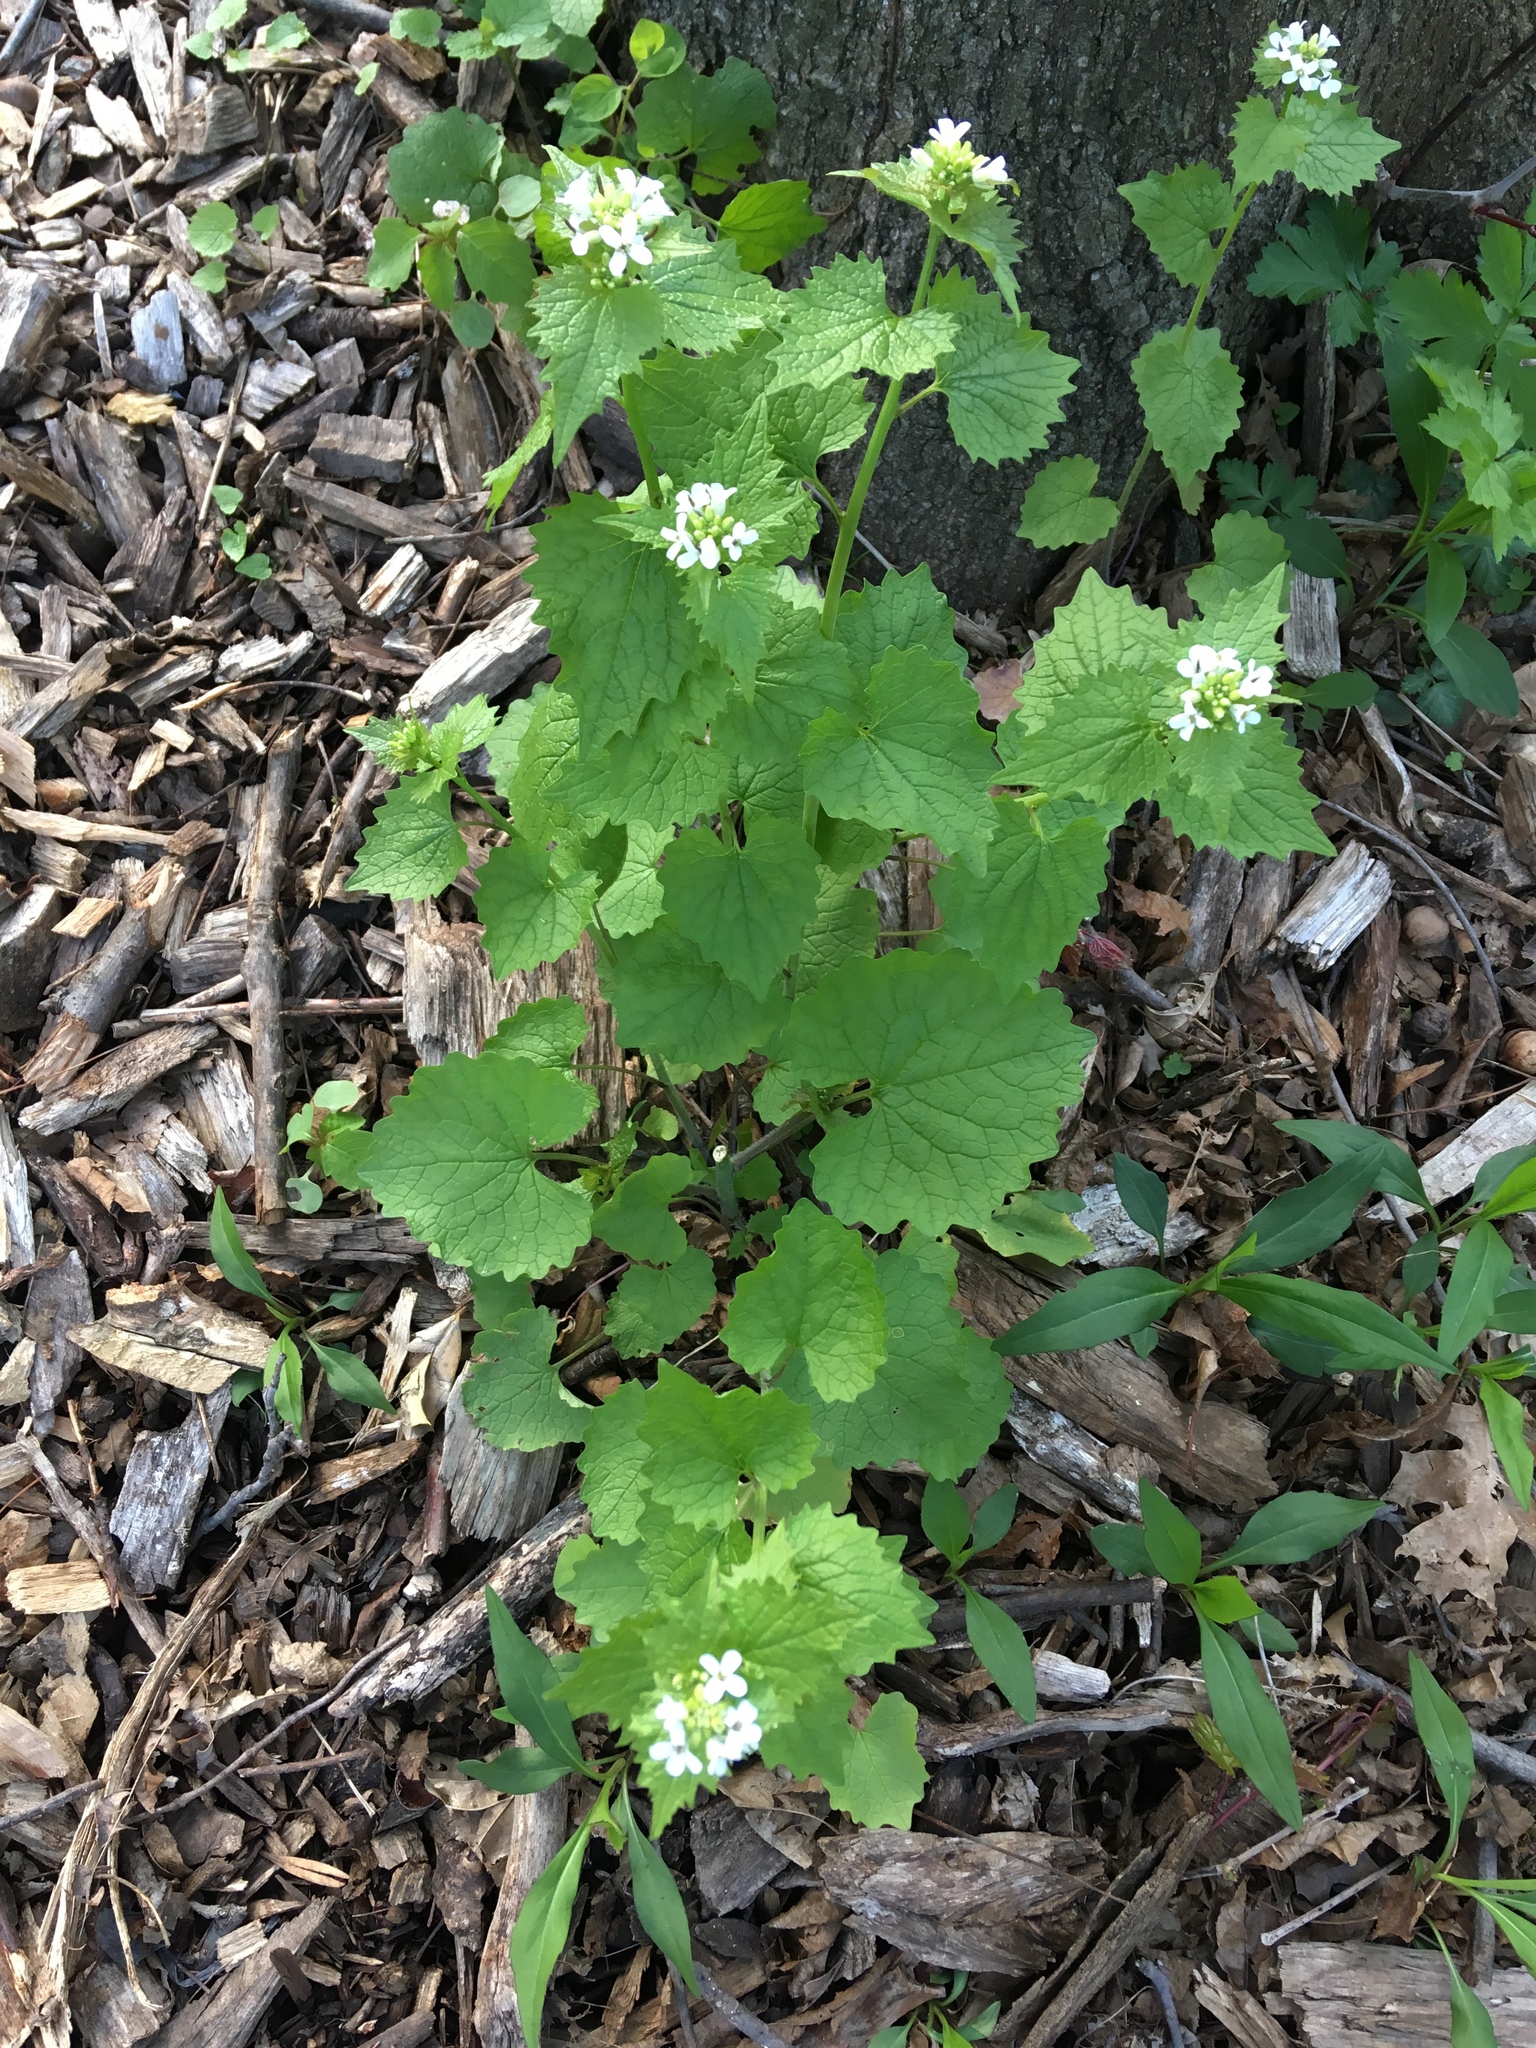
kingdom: Plantae
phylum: Tracheophyta
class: Magnoliopsida
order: Brassicales
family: Brassicaceae
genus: Alliaria
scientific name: Alliaria petiolata
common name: Garlic mustard
